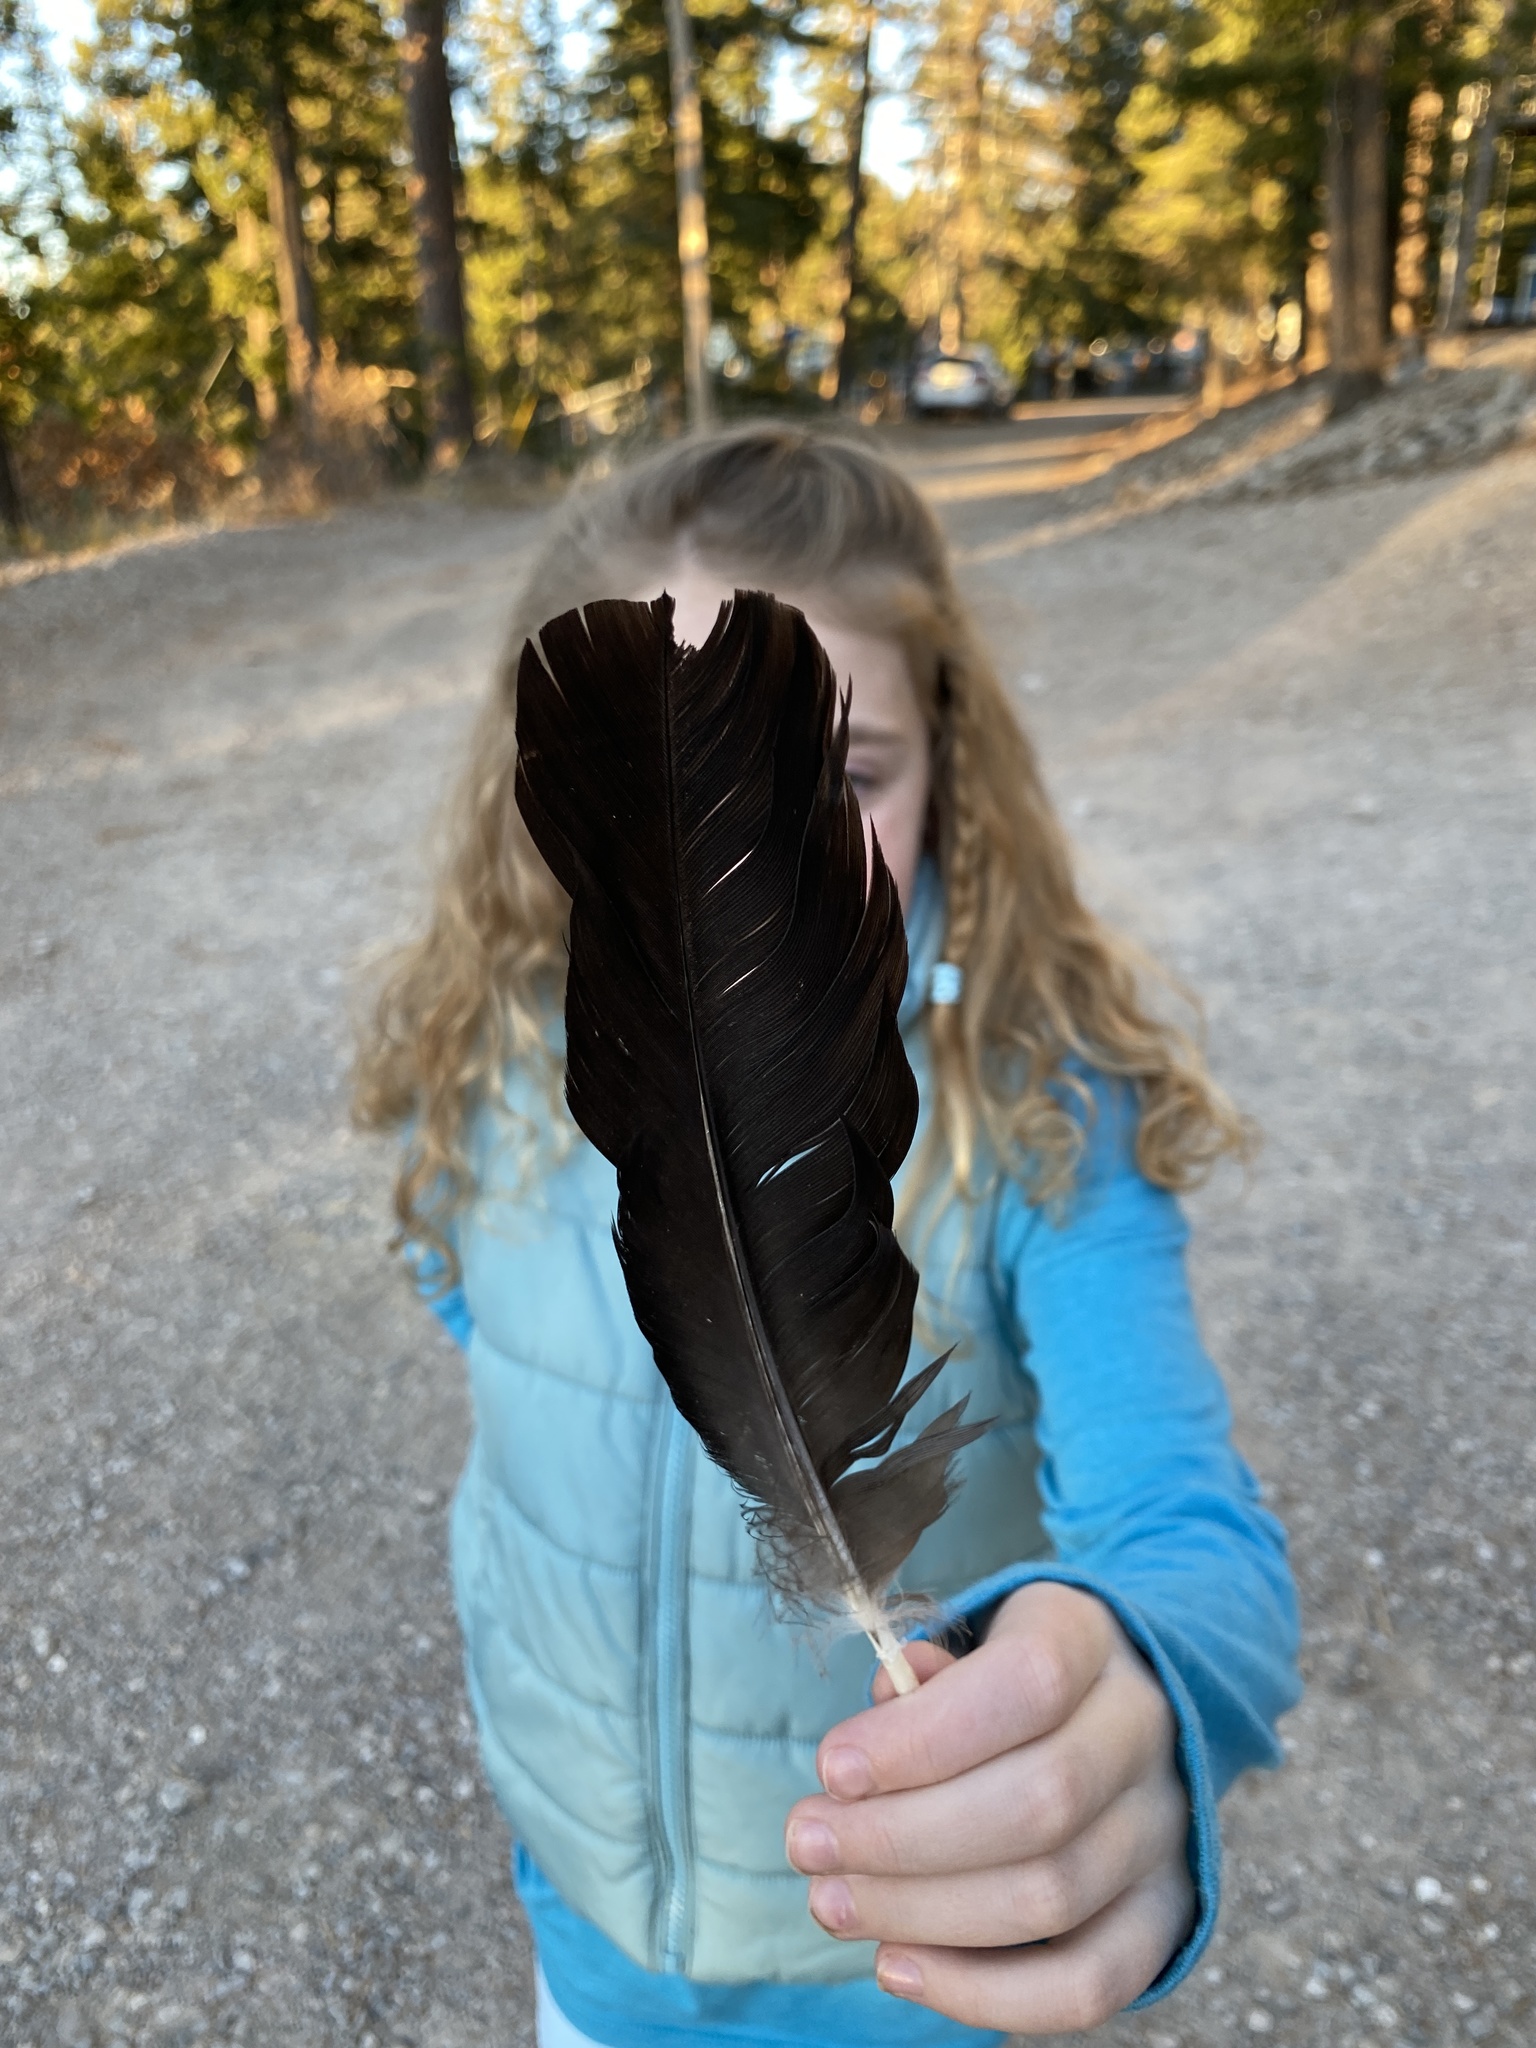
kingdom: Animalia
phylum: Chordata
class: Aves
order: Passeriformes
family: Corvidae
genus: Corvus
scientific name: Corvus corax
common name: Common raven
